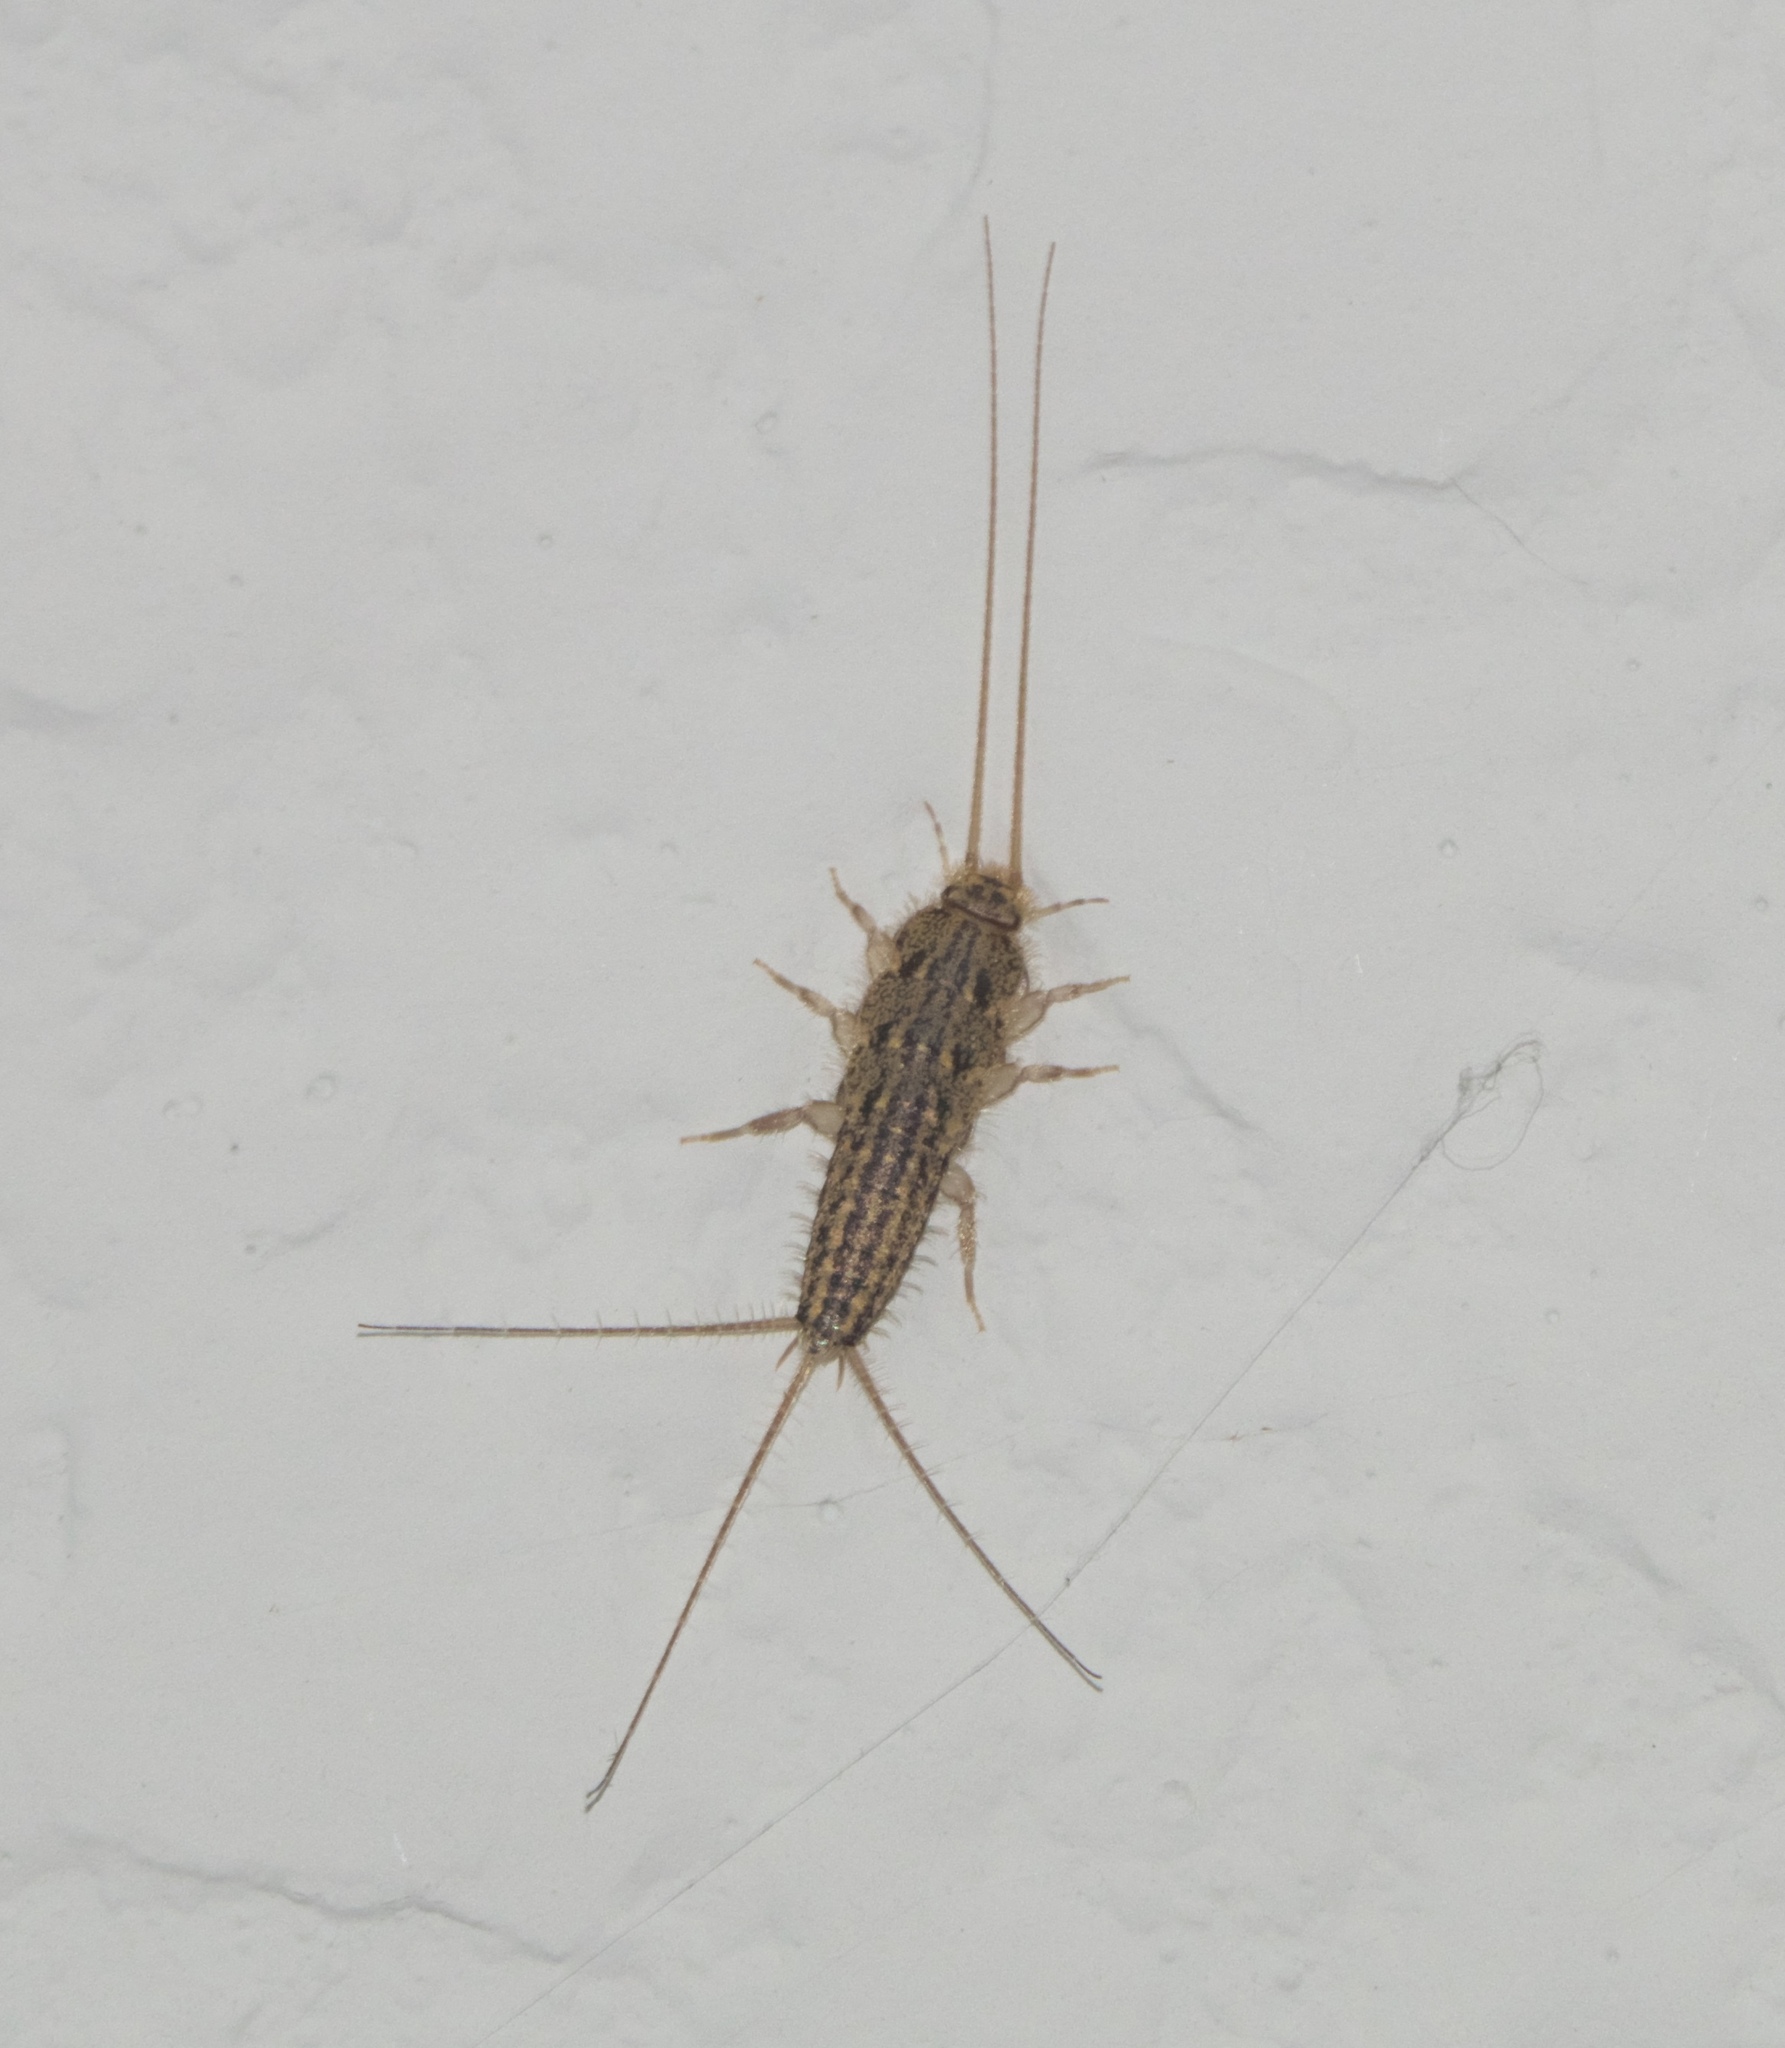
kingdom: Animalia
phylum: Arthropoda
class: Insecta
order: Zygentoma
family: Lepismatidae
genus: Ctenolepisma
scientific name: Ctenolepisma lineata
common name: Four-lined silverfish
